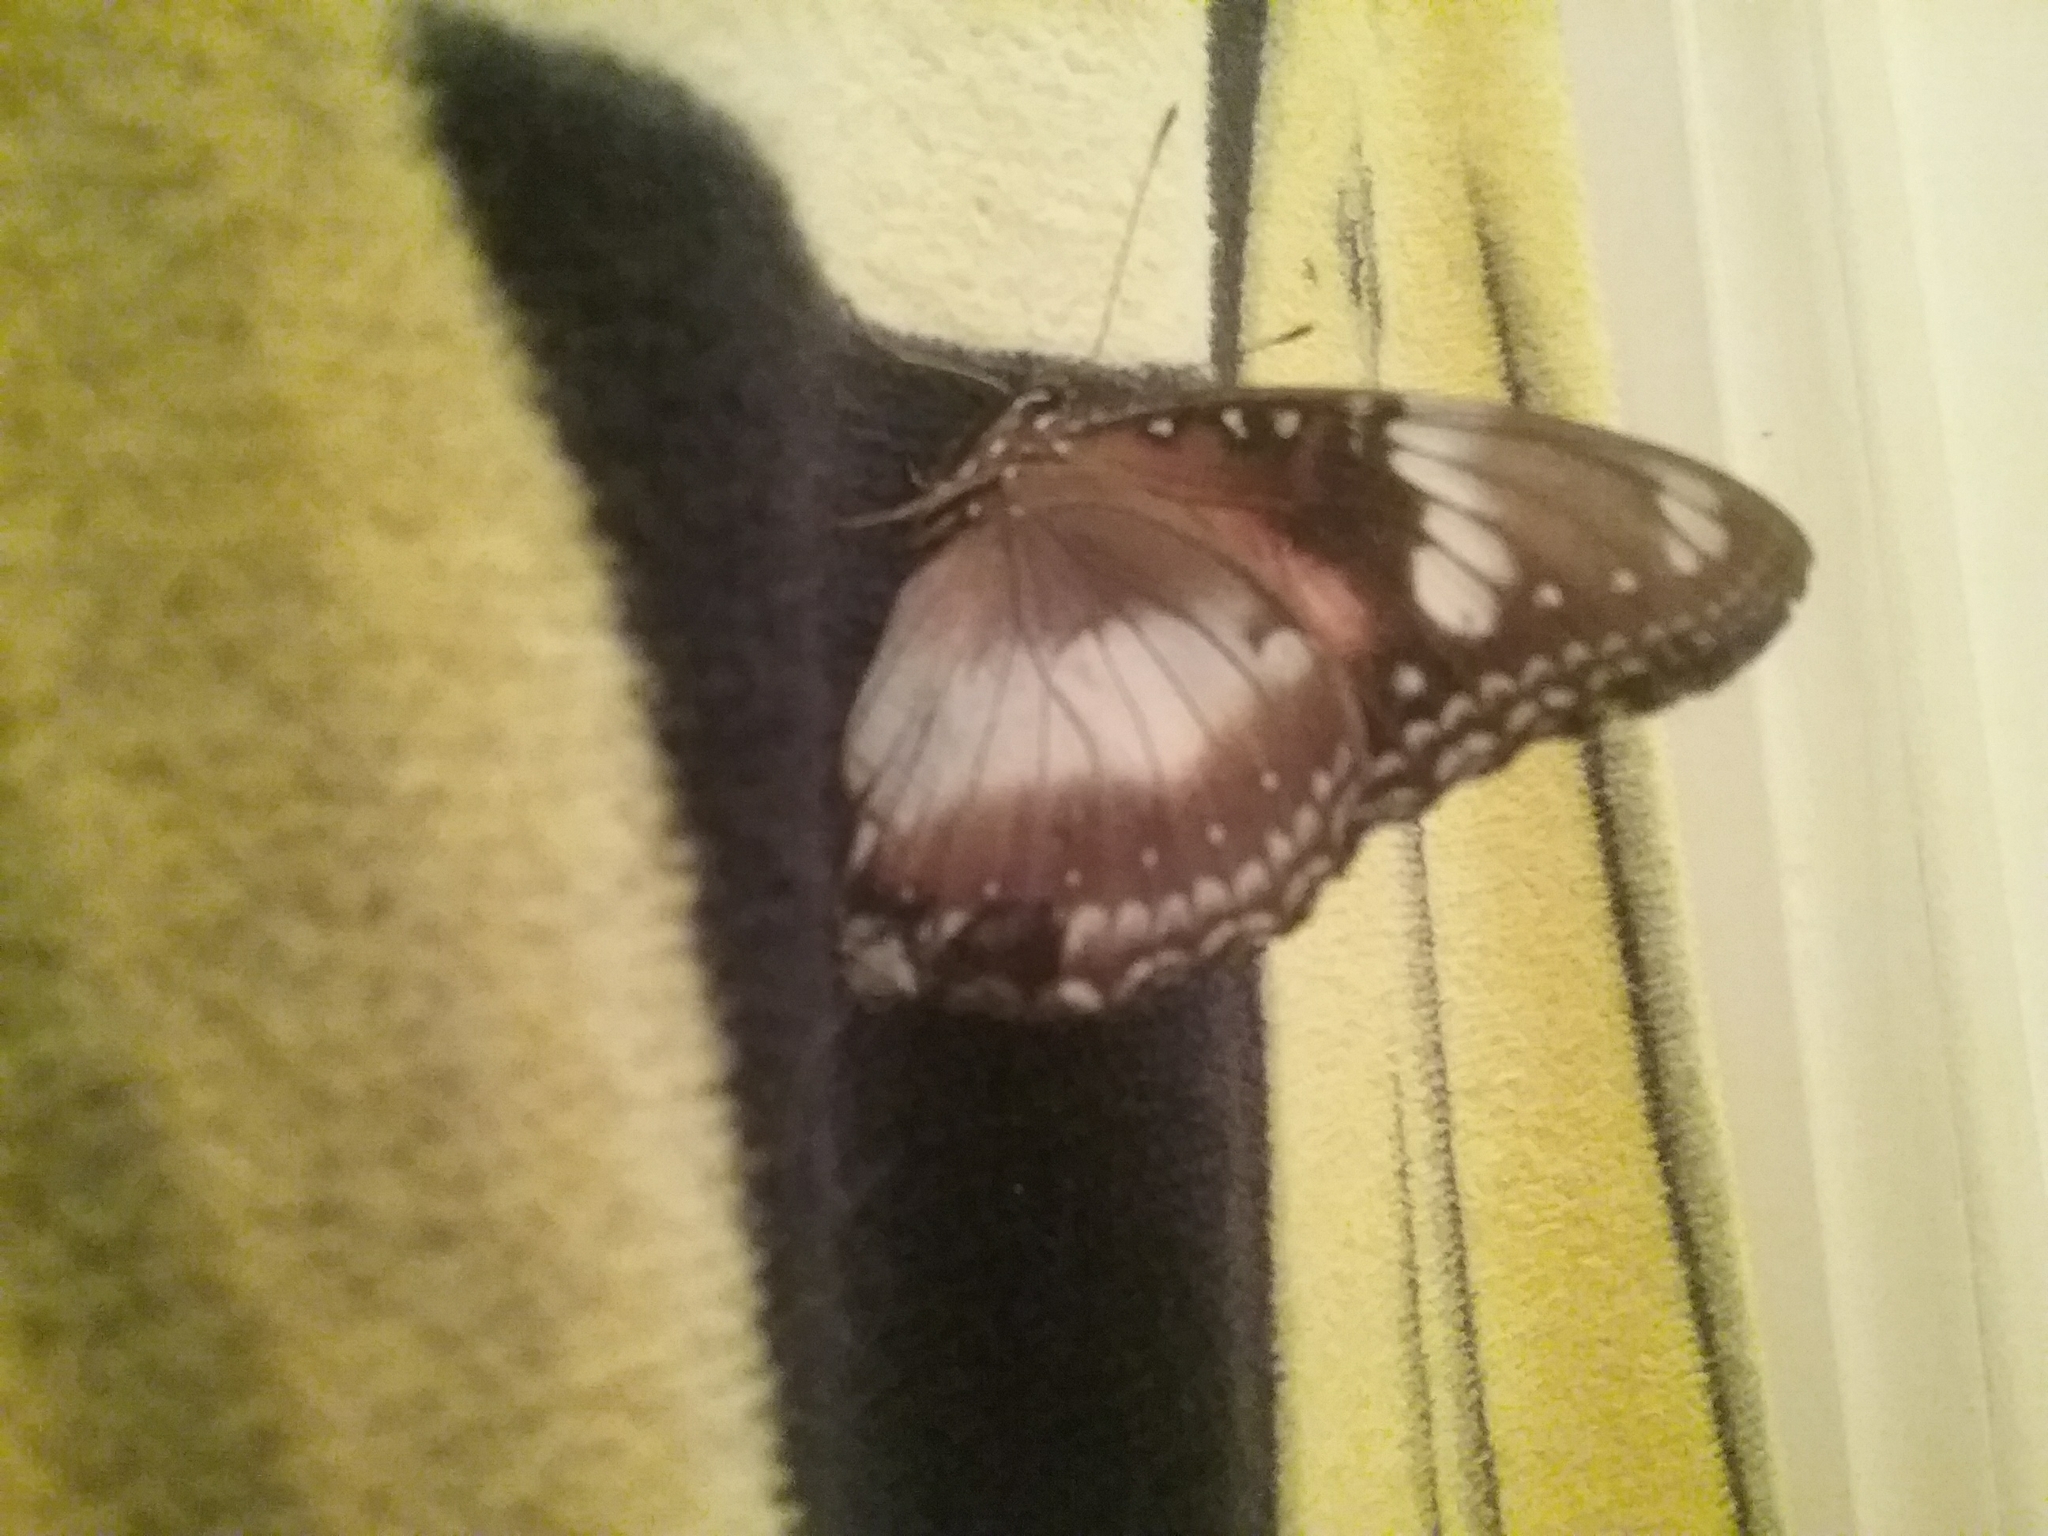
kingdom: Animalia
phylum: Arthropoda
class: Insecta
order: Lepidoptera
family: Nymphalidae
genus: Hypolimnas
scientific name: Hypolimnas bolina
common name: Great eggfly
